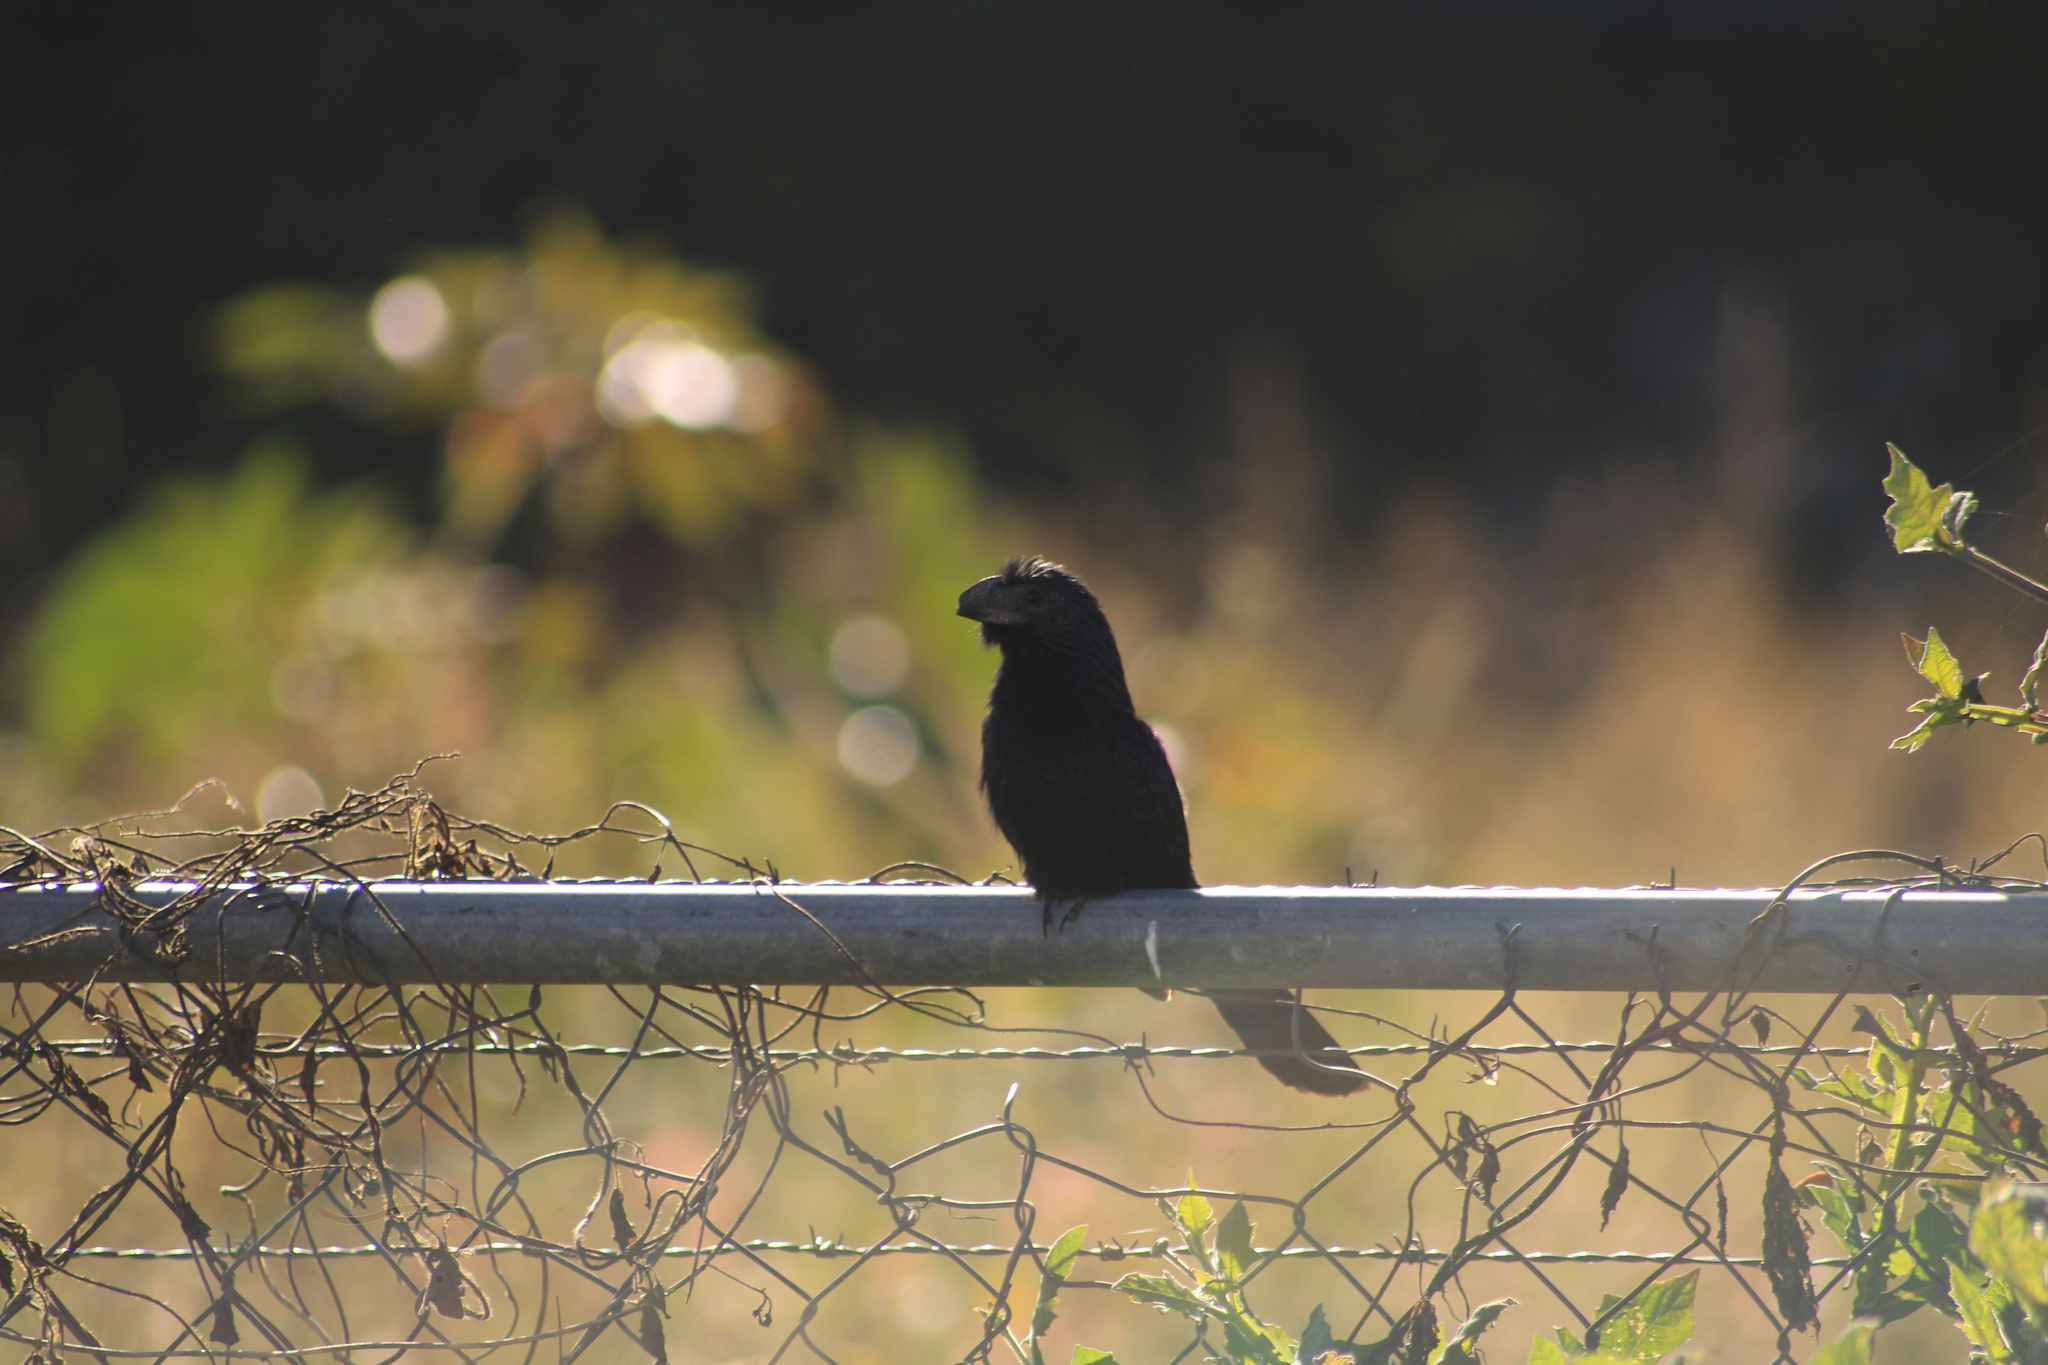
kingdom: Animalia
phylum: Chordata
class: Aves
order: Cuculiformes
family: Cuculidae
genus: Crotophaga
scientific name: Crotophaga sulcirostris
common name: Groove-billed ani
